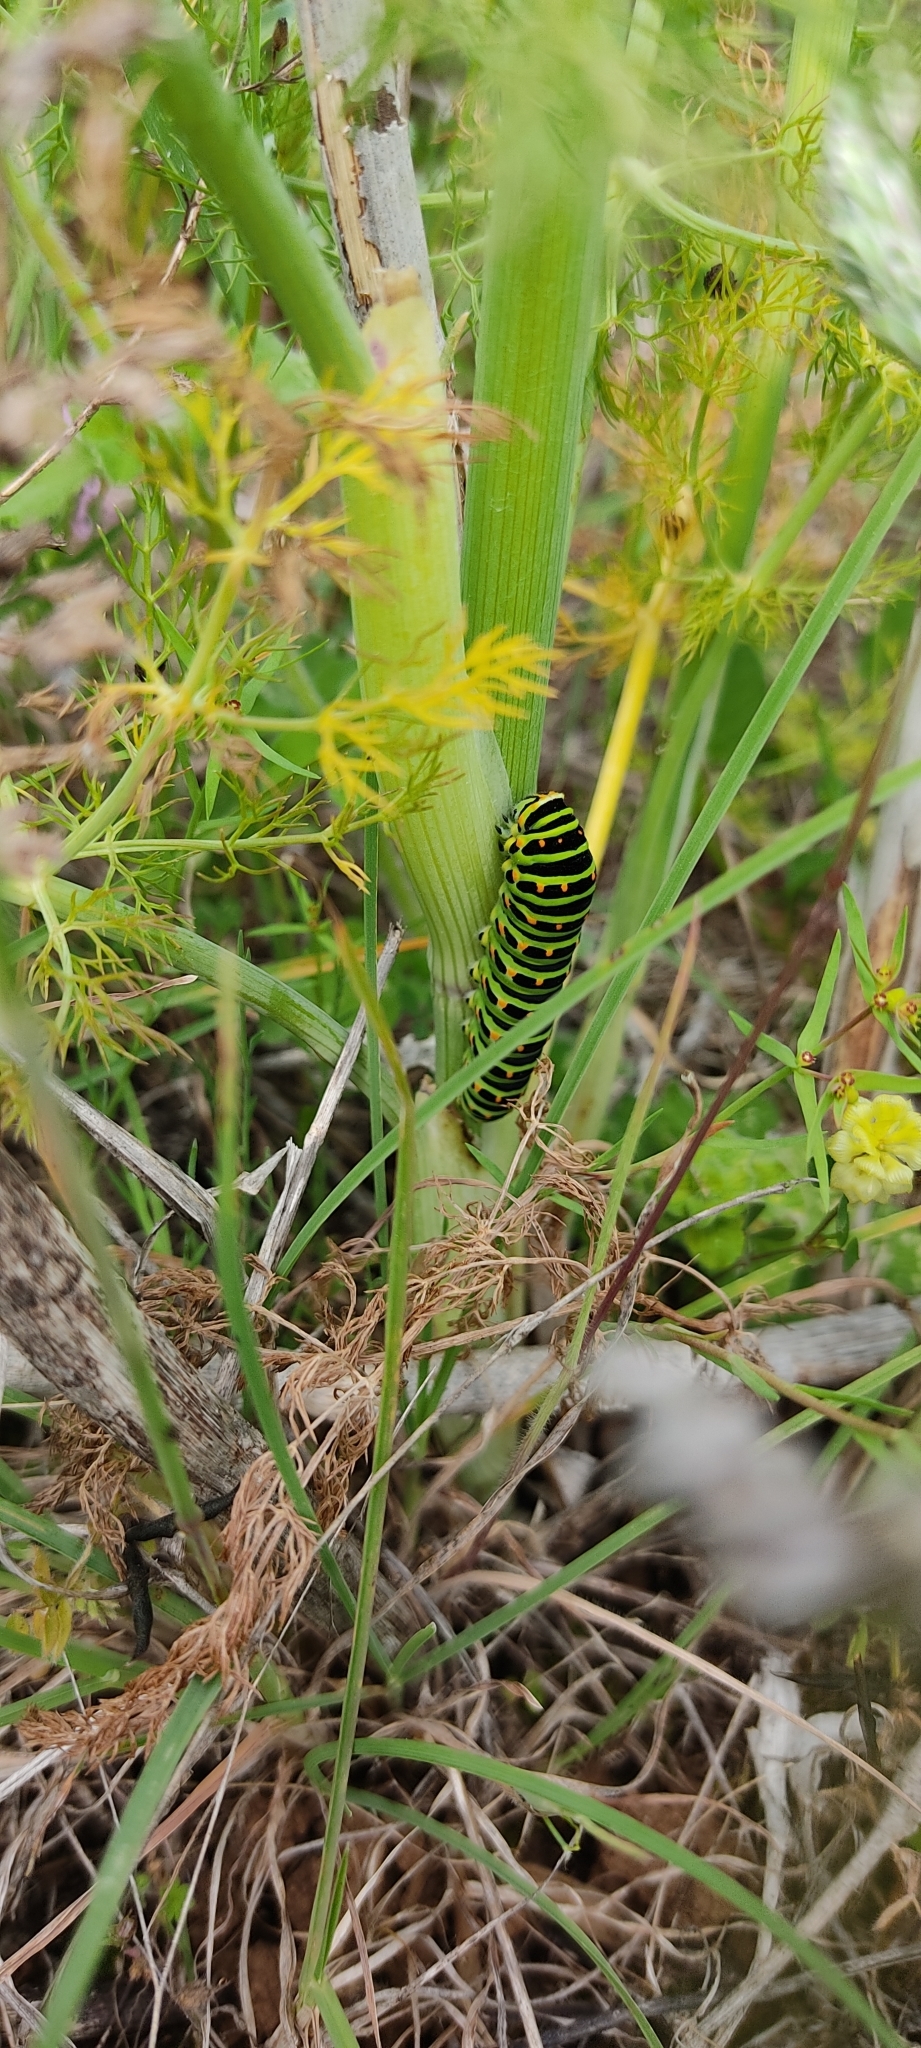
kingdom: Animalia
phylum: Arthropoda
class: Insecta
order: Lepidoptera
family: Papilionidae
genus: Papilio
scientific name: Papilio machaon
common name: Swallowtail
